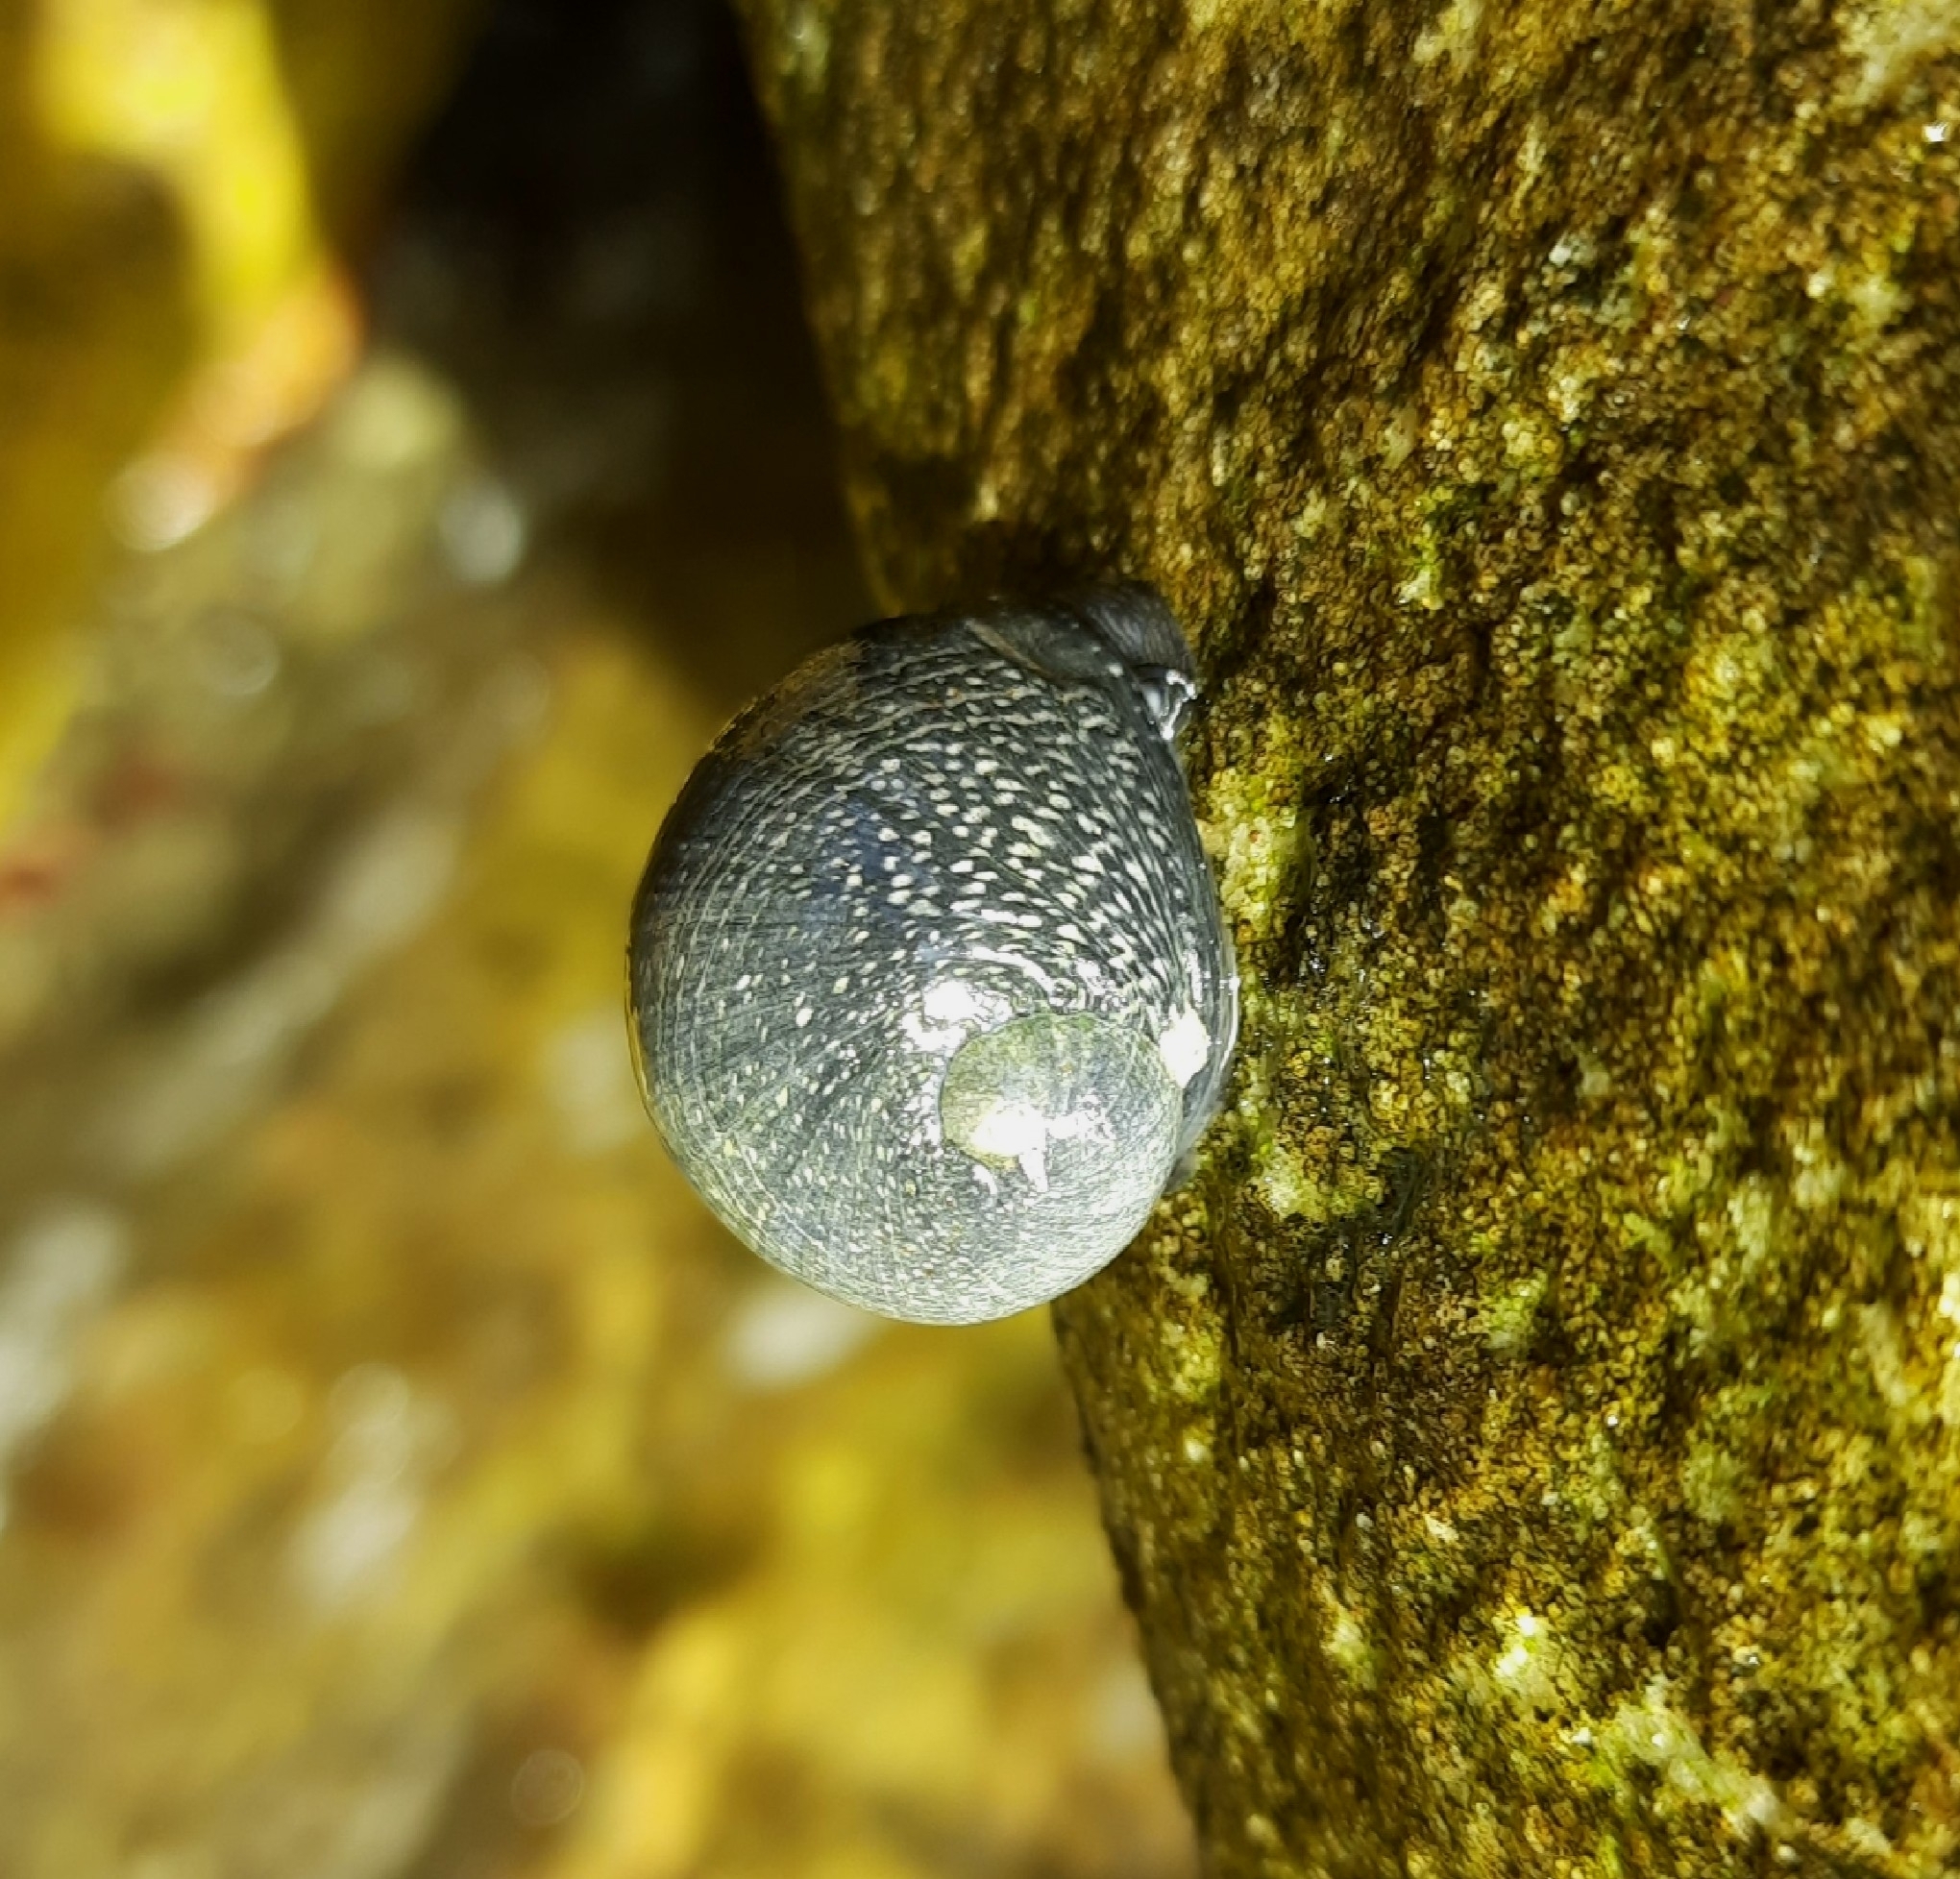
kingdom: Animalia
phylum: Mollusca
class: Gastropoda
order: Cycloneritida
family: Neritidae
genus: Nerita
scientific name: Nerita melanotragus
